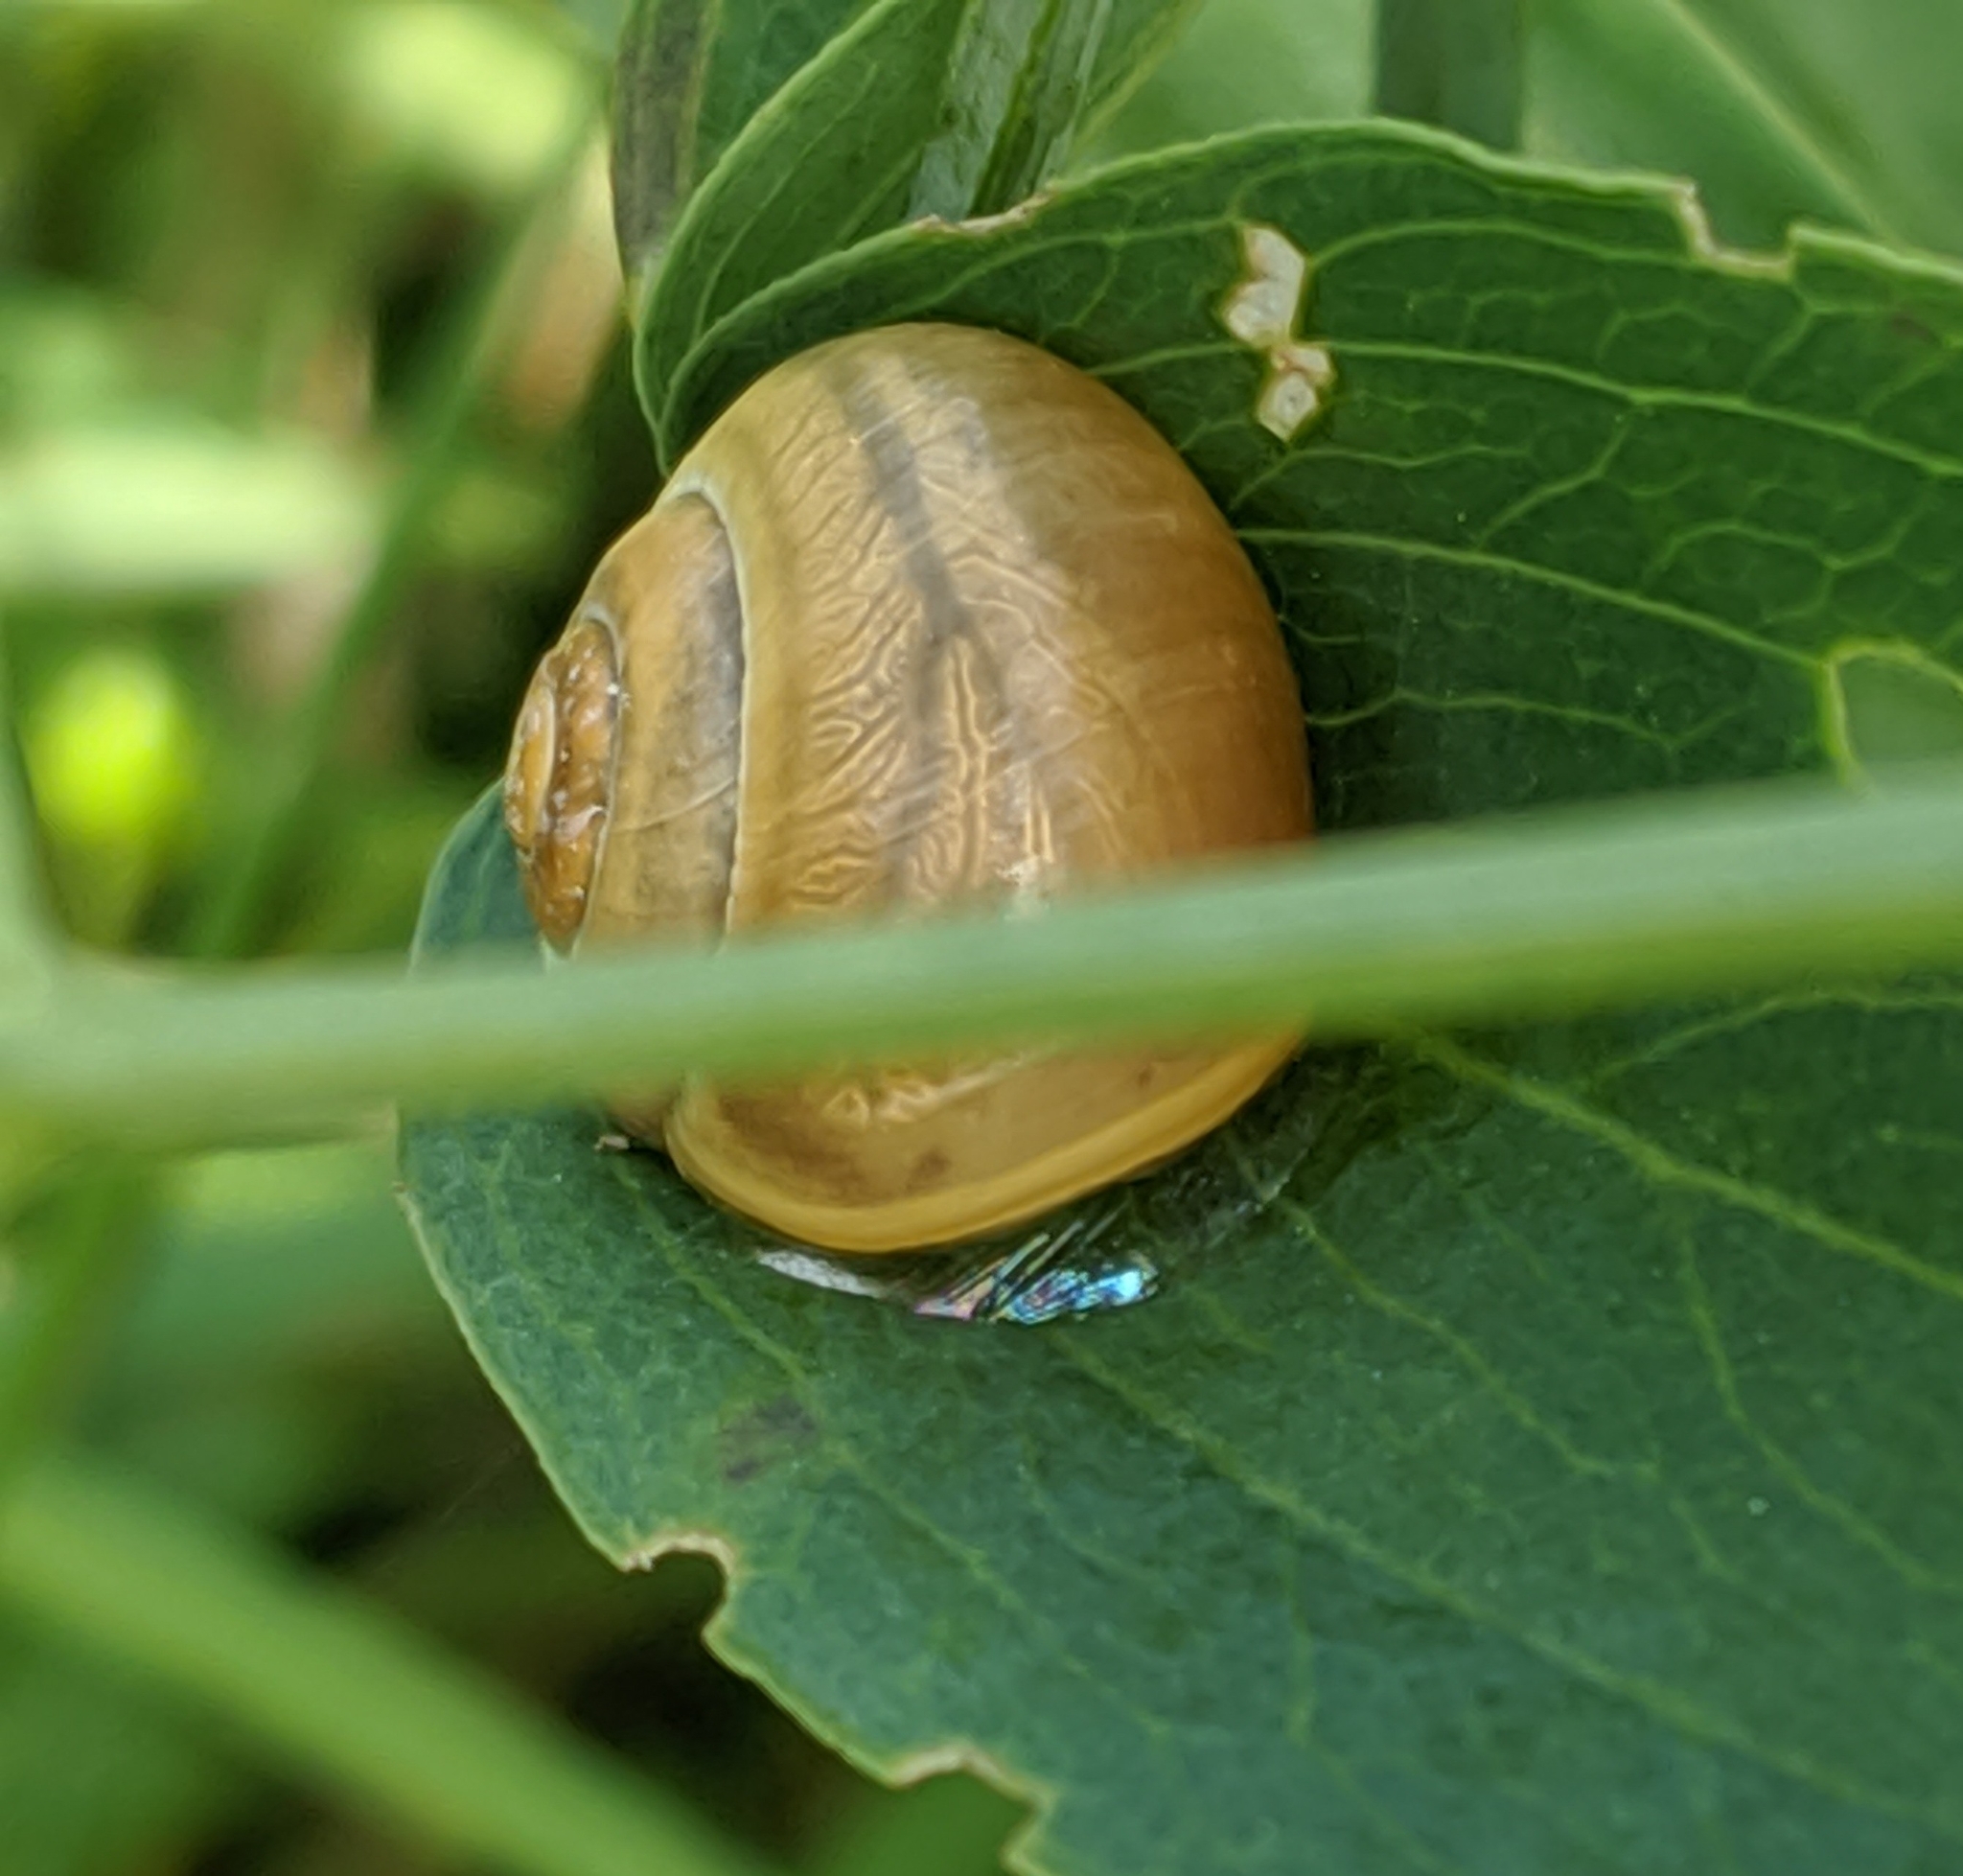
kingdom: Animalia
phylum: Mollusca
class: Gastropoda
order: Stylommatophora
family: Helicidae
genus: Cepaea
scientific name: Cepaea
